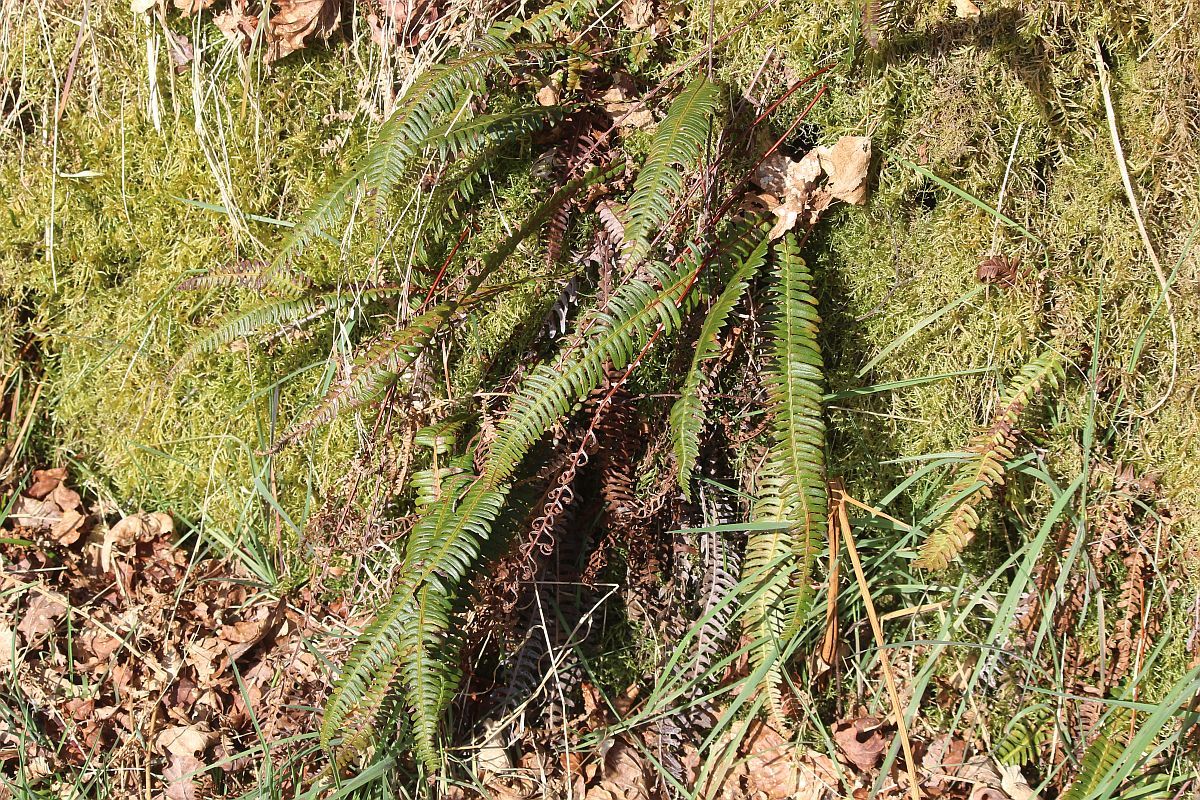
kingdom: Plantae
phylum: Tracheophyta
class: Polypodiopsida
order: Polypodiales
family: Blechnaceae
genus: Struthiopteris
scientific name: Struthiopteris spicant
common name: Deer fern
